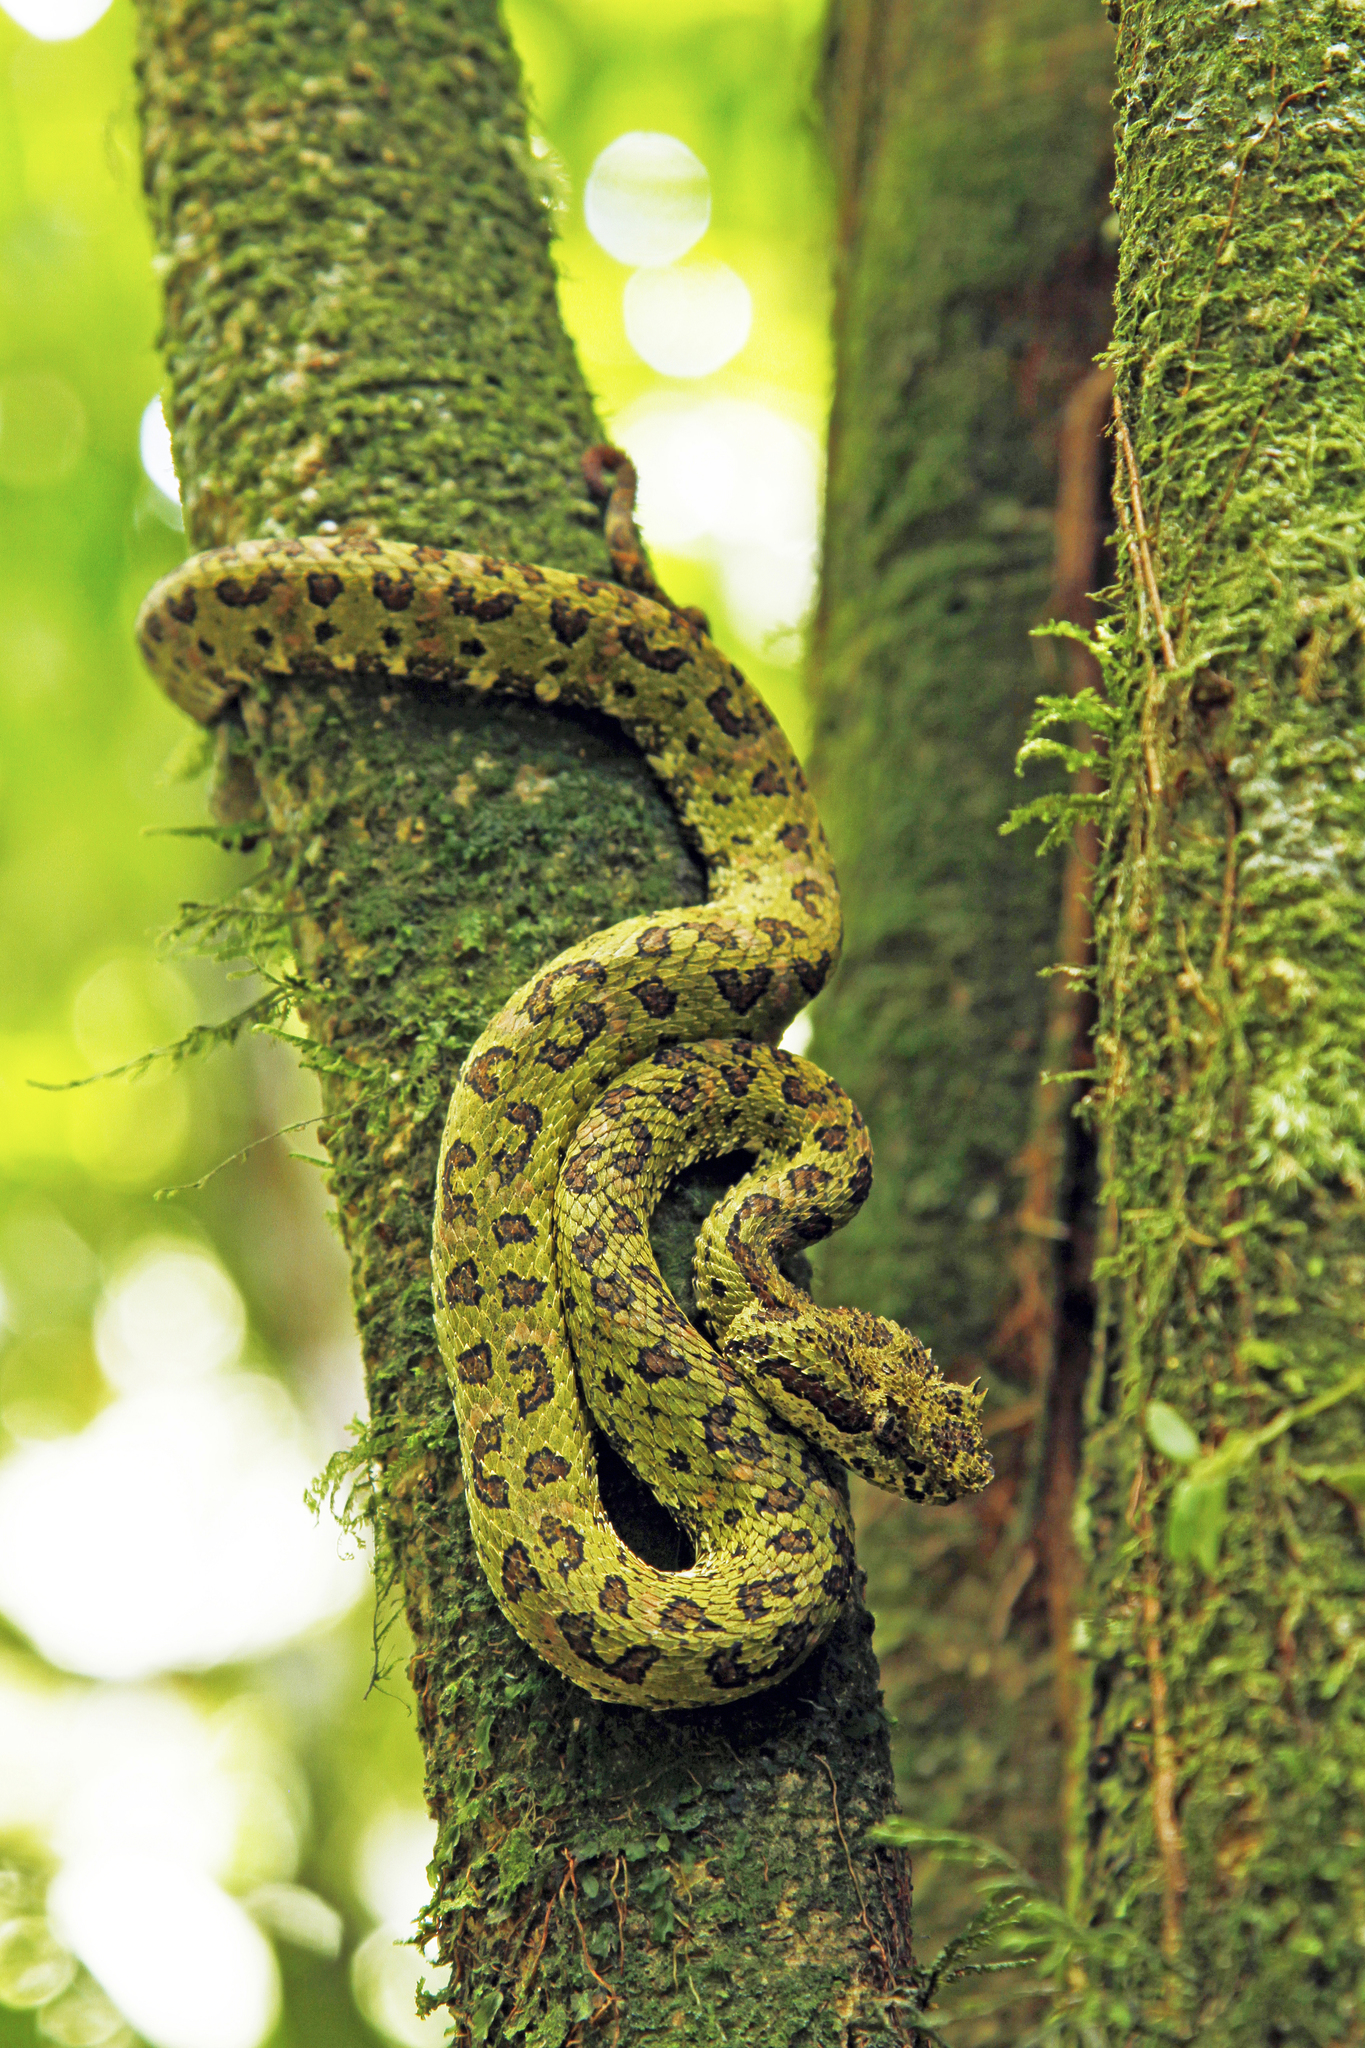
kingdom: Animalia
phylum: Chordata
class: Squamata
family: Viperidae
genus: Bothriechis
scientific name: Bothriechis schlegelii
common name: Eyelash viper
